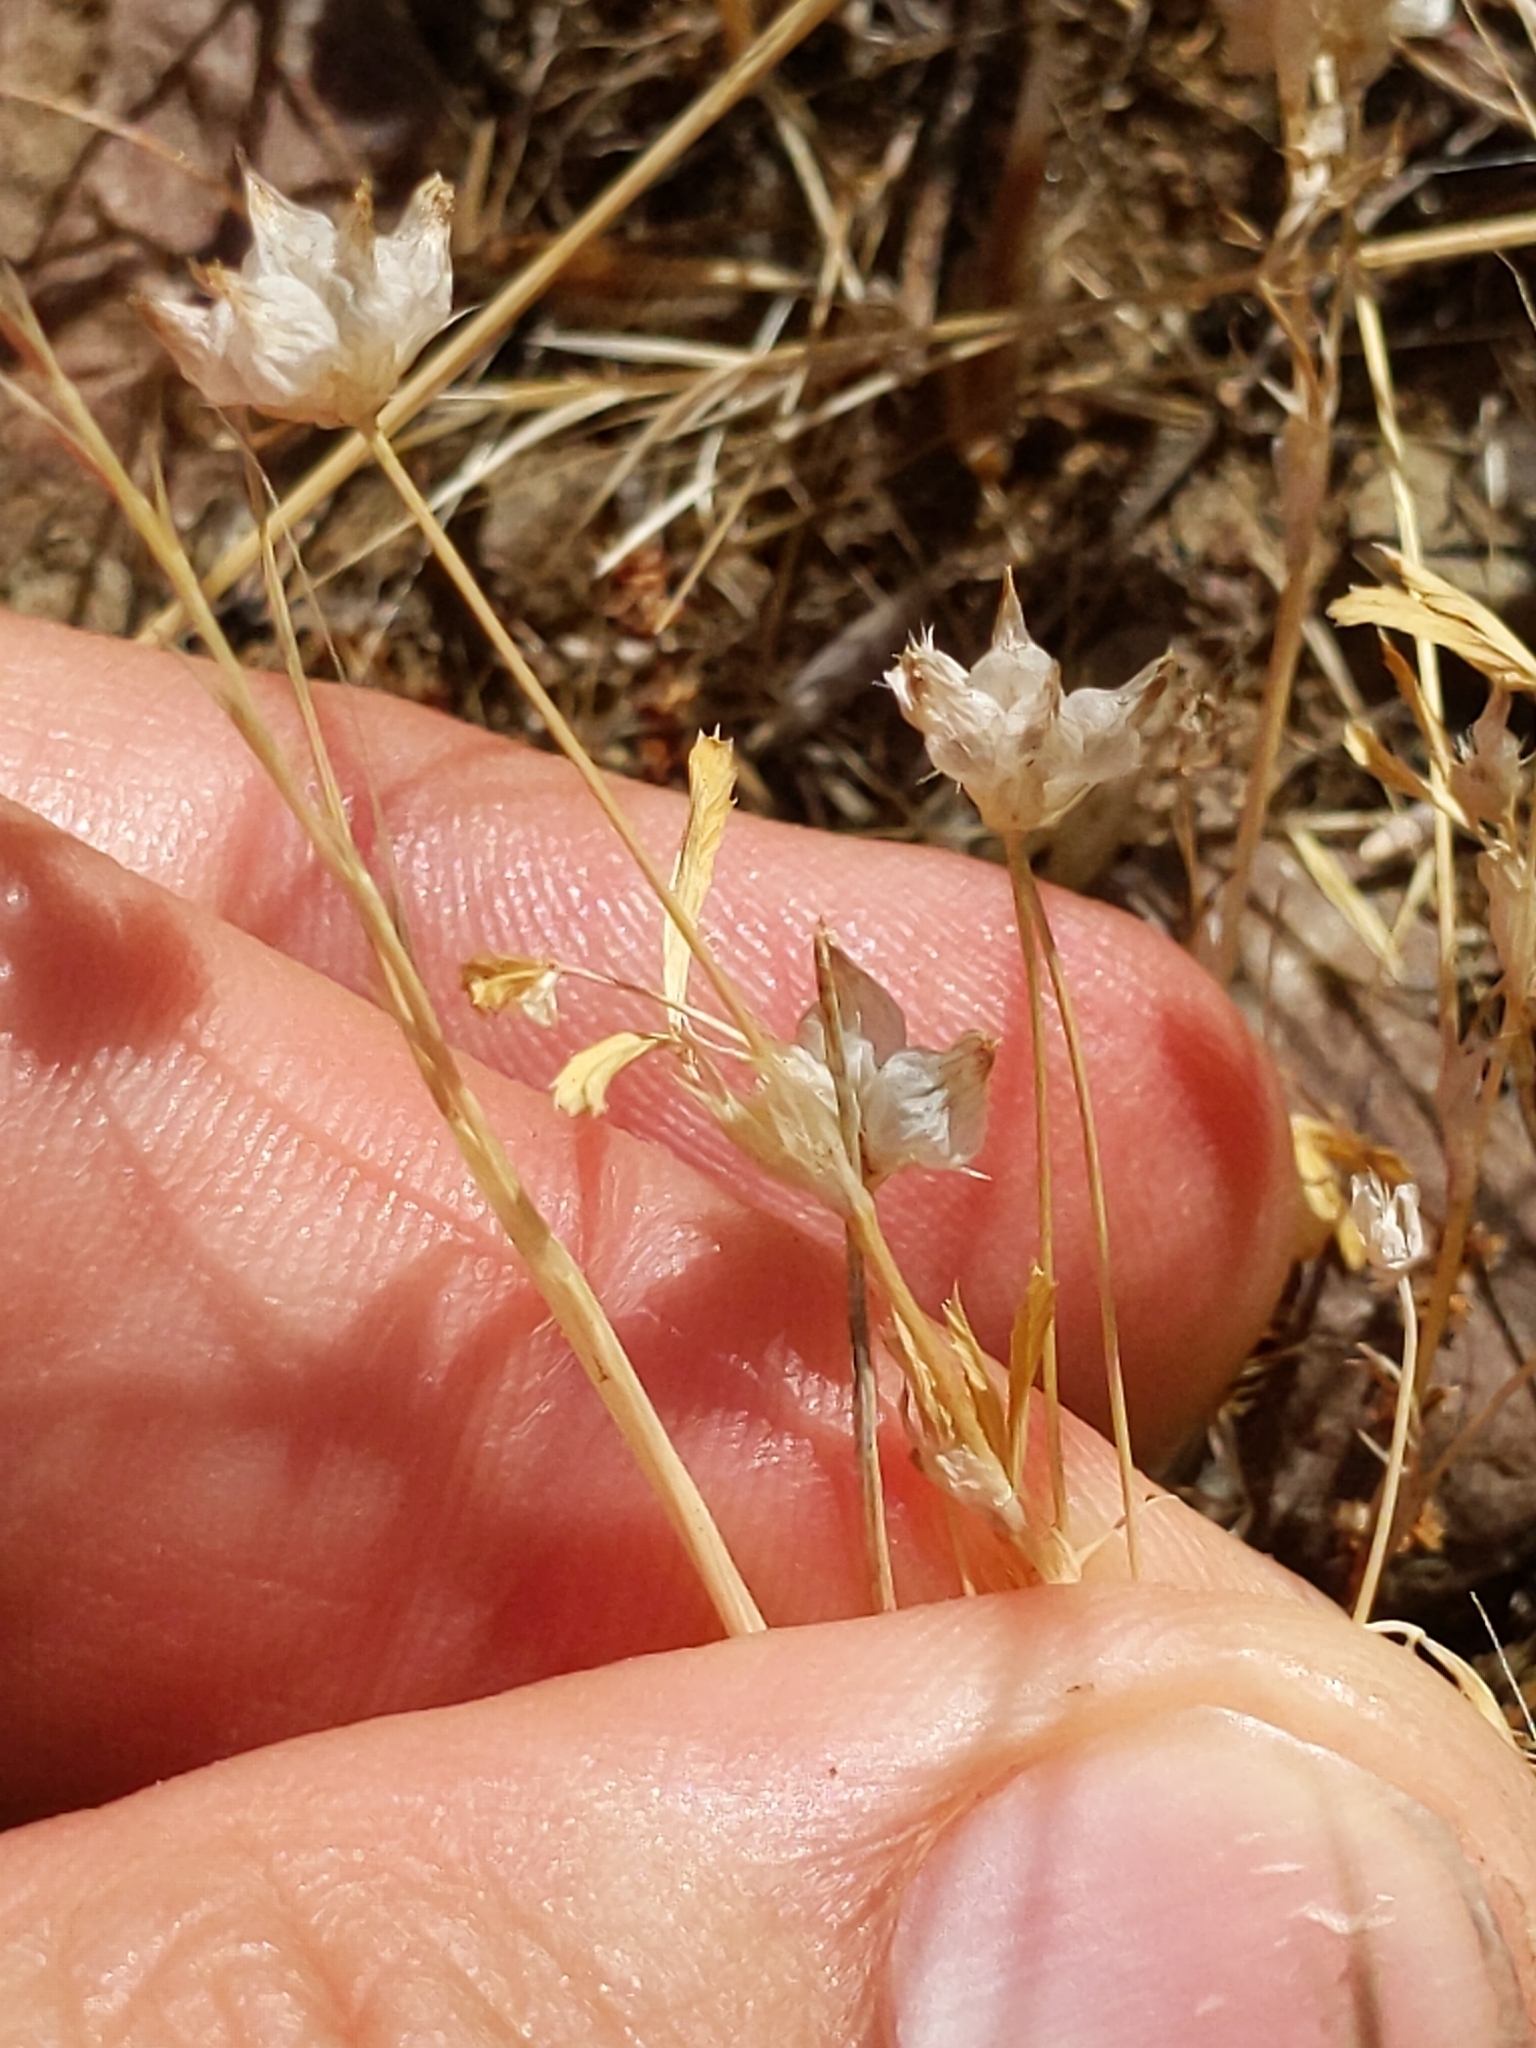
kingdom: Plantae
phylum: Tracheophyta
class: Magnoliopsida
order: Fabales
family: Fabaceae
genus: Trifolium
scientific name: Trifolium depauperatum
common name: Poverty clover
